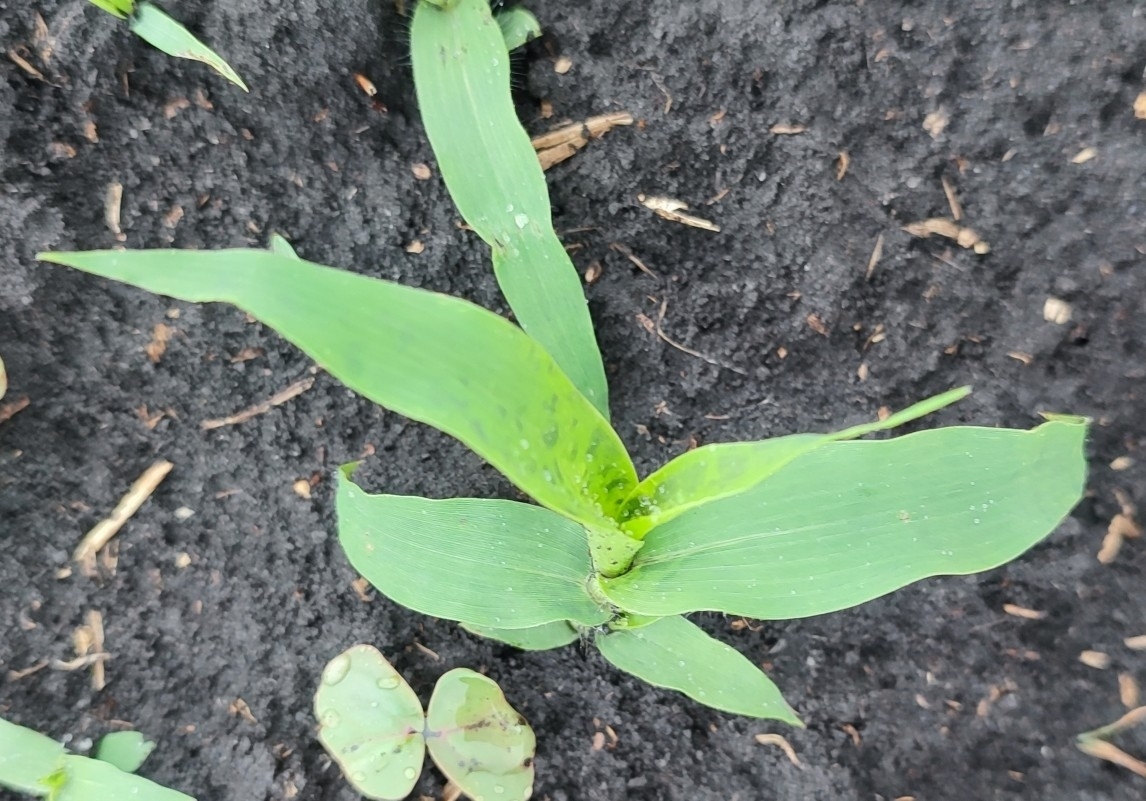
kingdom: Plantae
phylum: Tracheophyta
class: Liliopsida
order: Poales
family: Poaceae
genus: Panicum
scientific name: Panicum miliaceum
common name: Common millet
